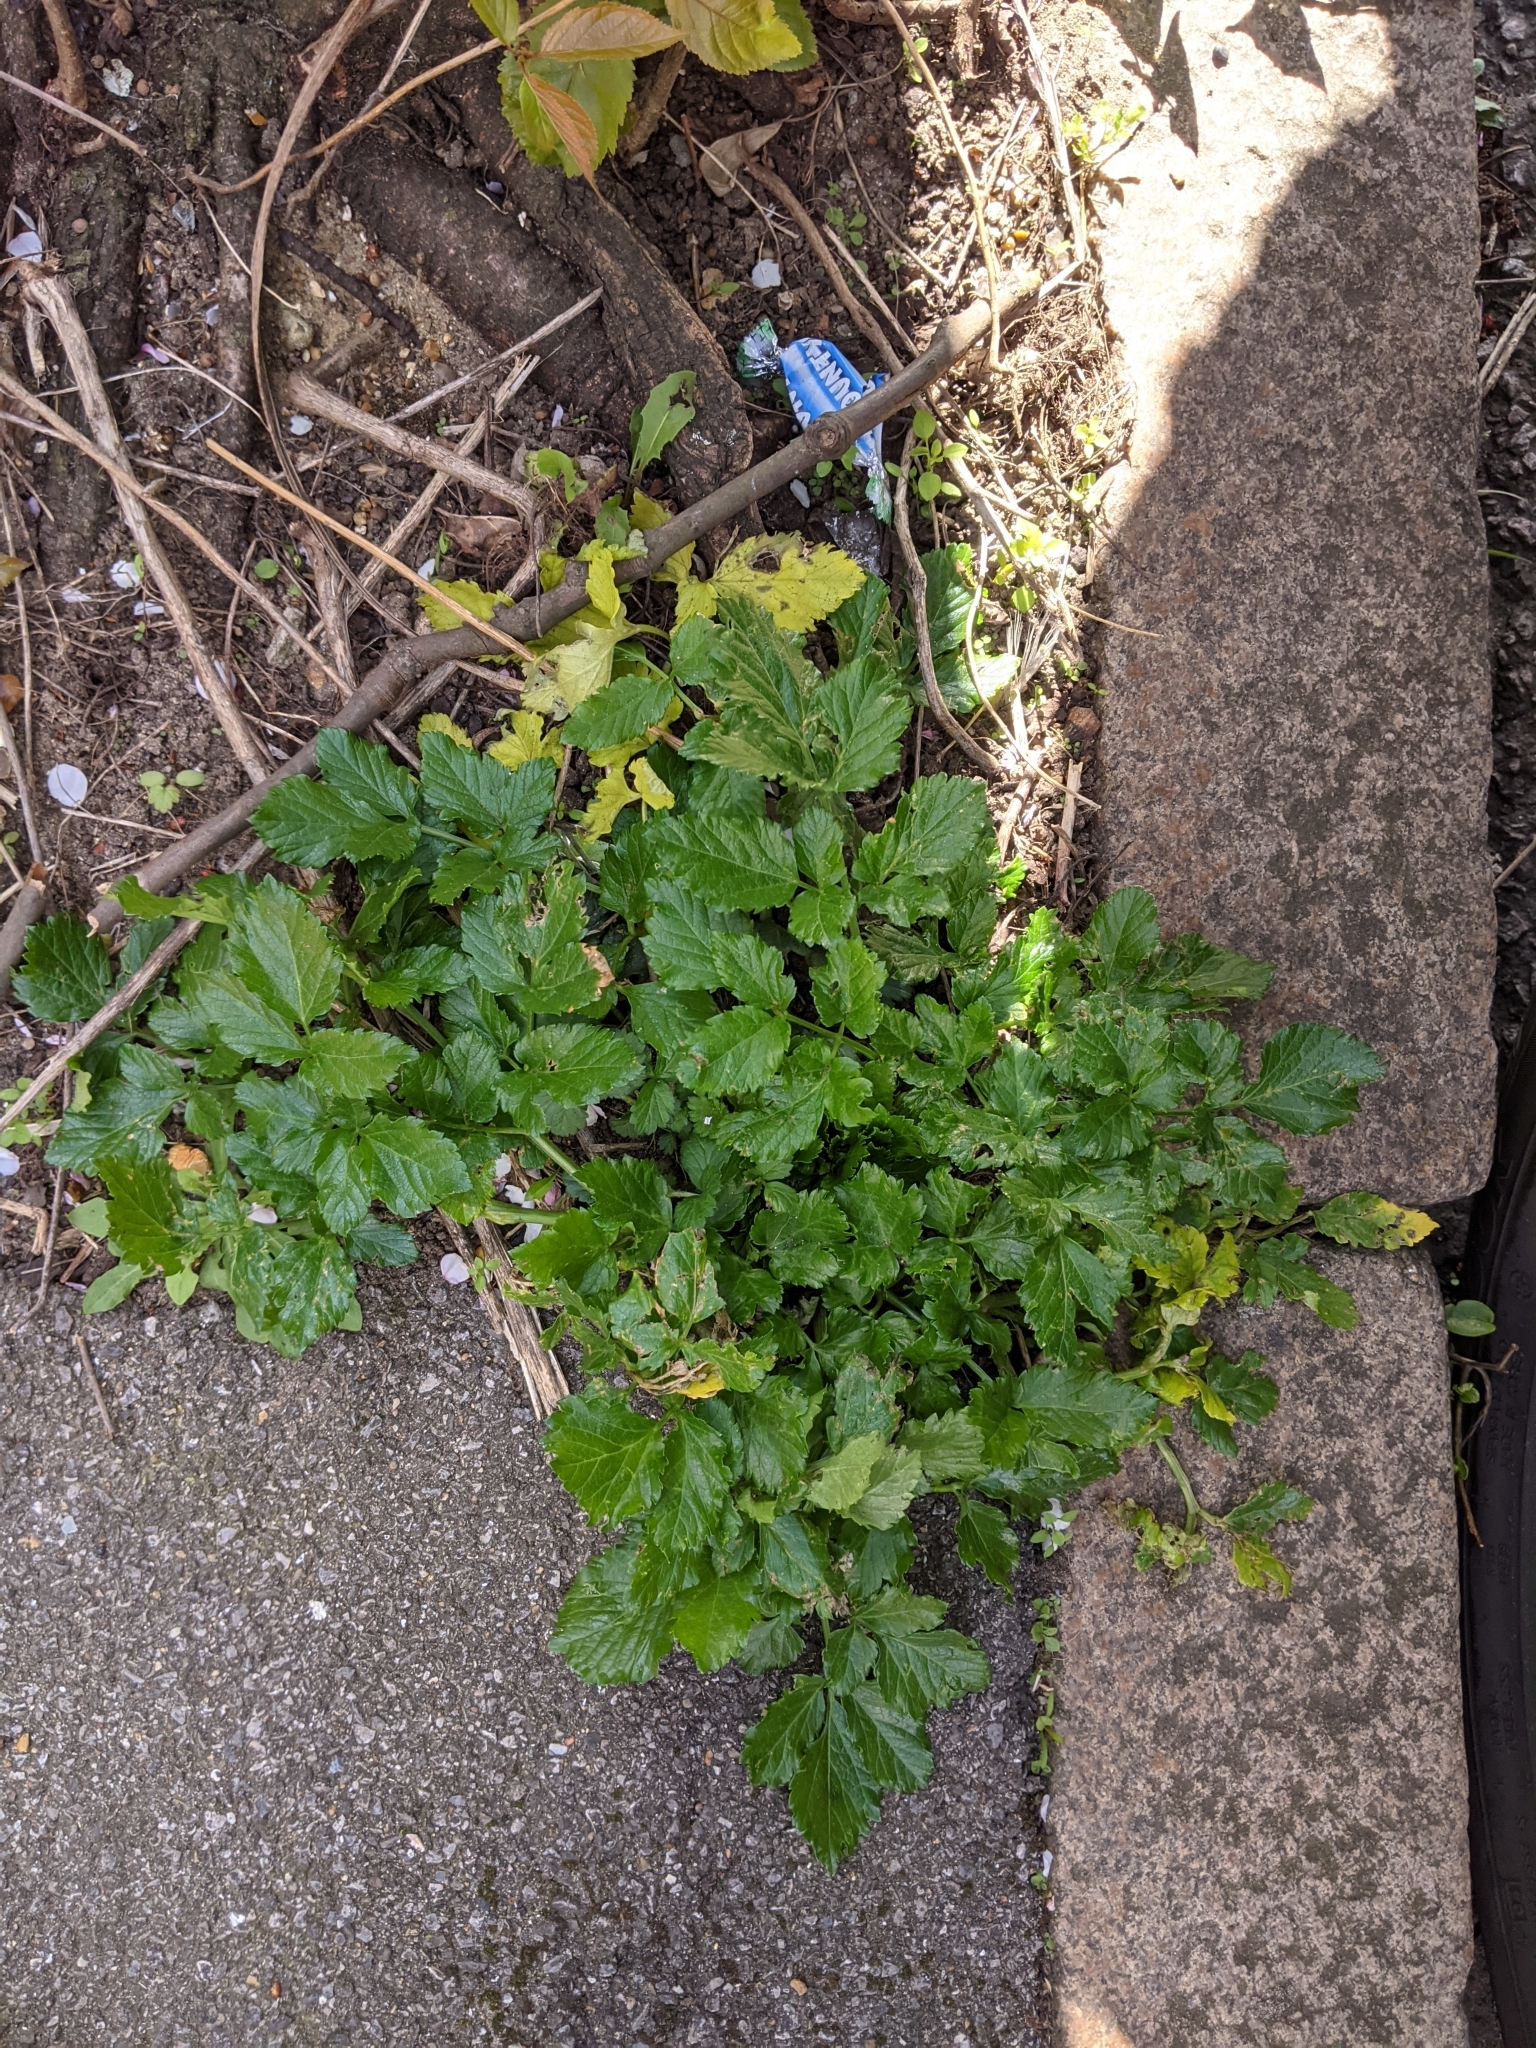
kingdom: Plantae
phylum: Tracheophyta
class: Magnoliopsida
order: Apiales
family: Apiaceae
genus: Smyrnium
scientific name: Smyrnium olusatrum
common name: Alexanders
